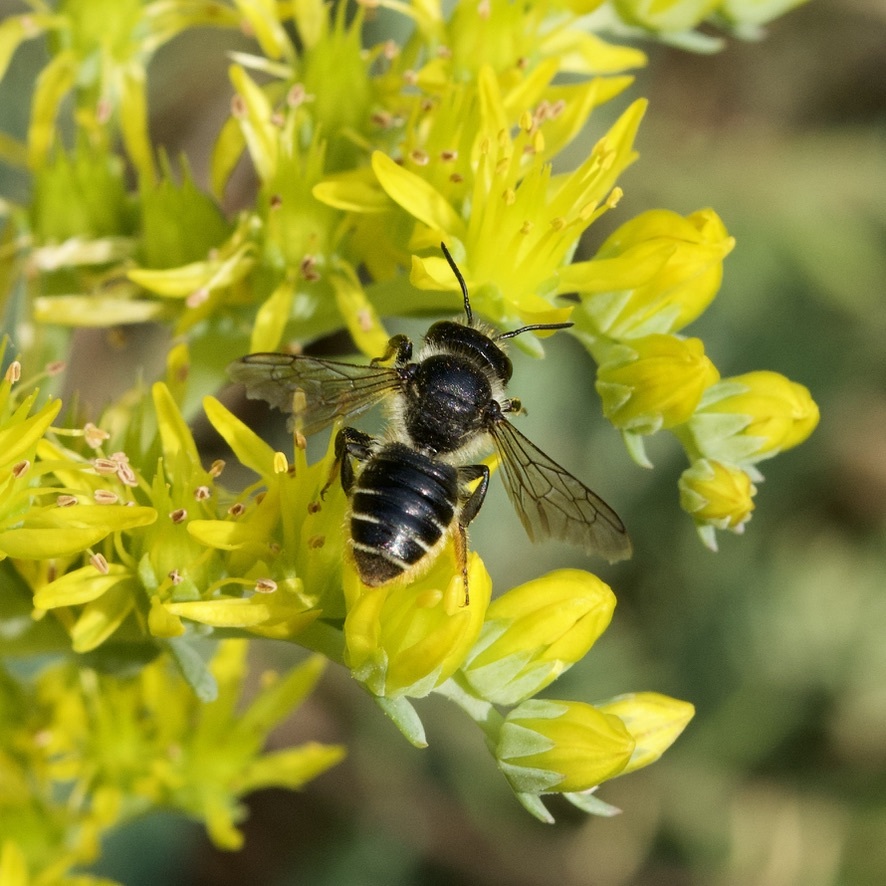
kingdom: Animalia
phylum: Arthropoda
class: Insecta
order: Hymenoptera
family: Megachilidae
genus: Megachile
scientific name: Megachile relativa
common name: Golden-tailed leafcutter
